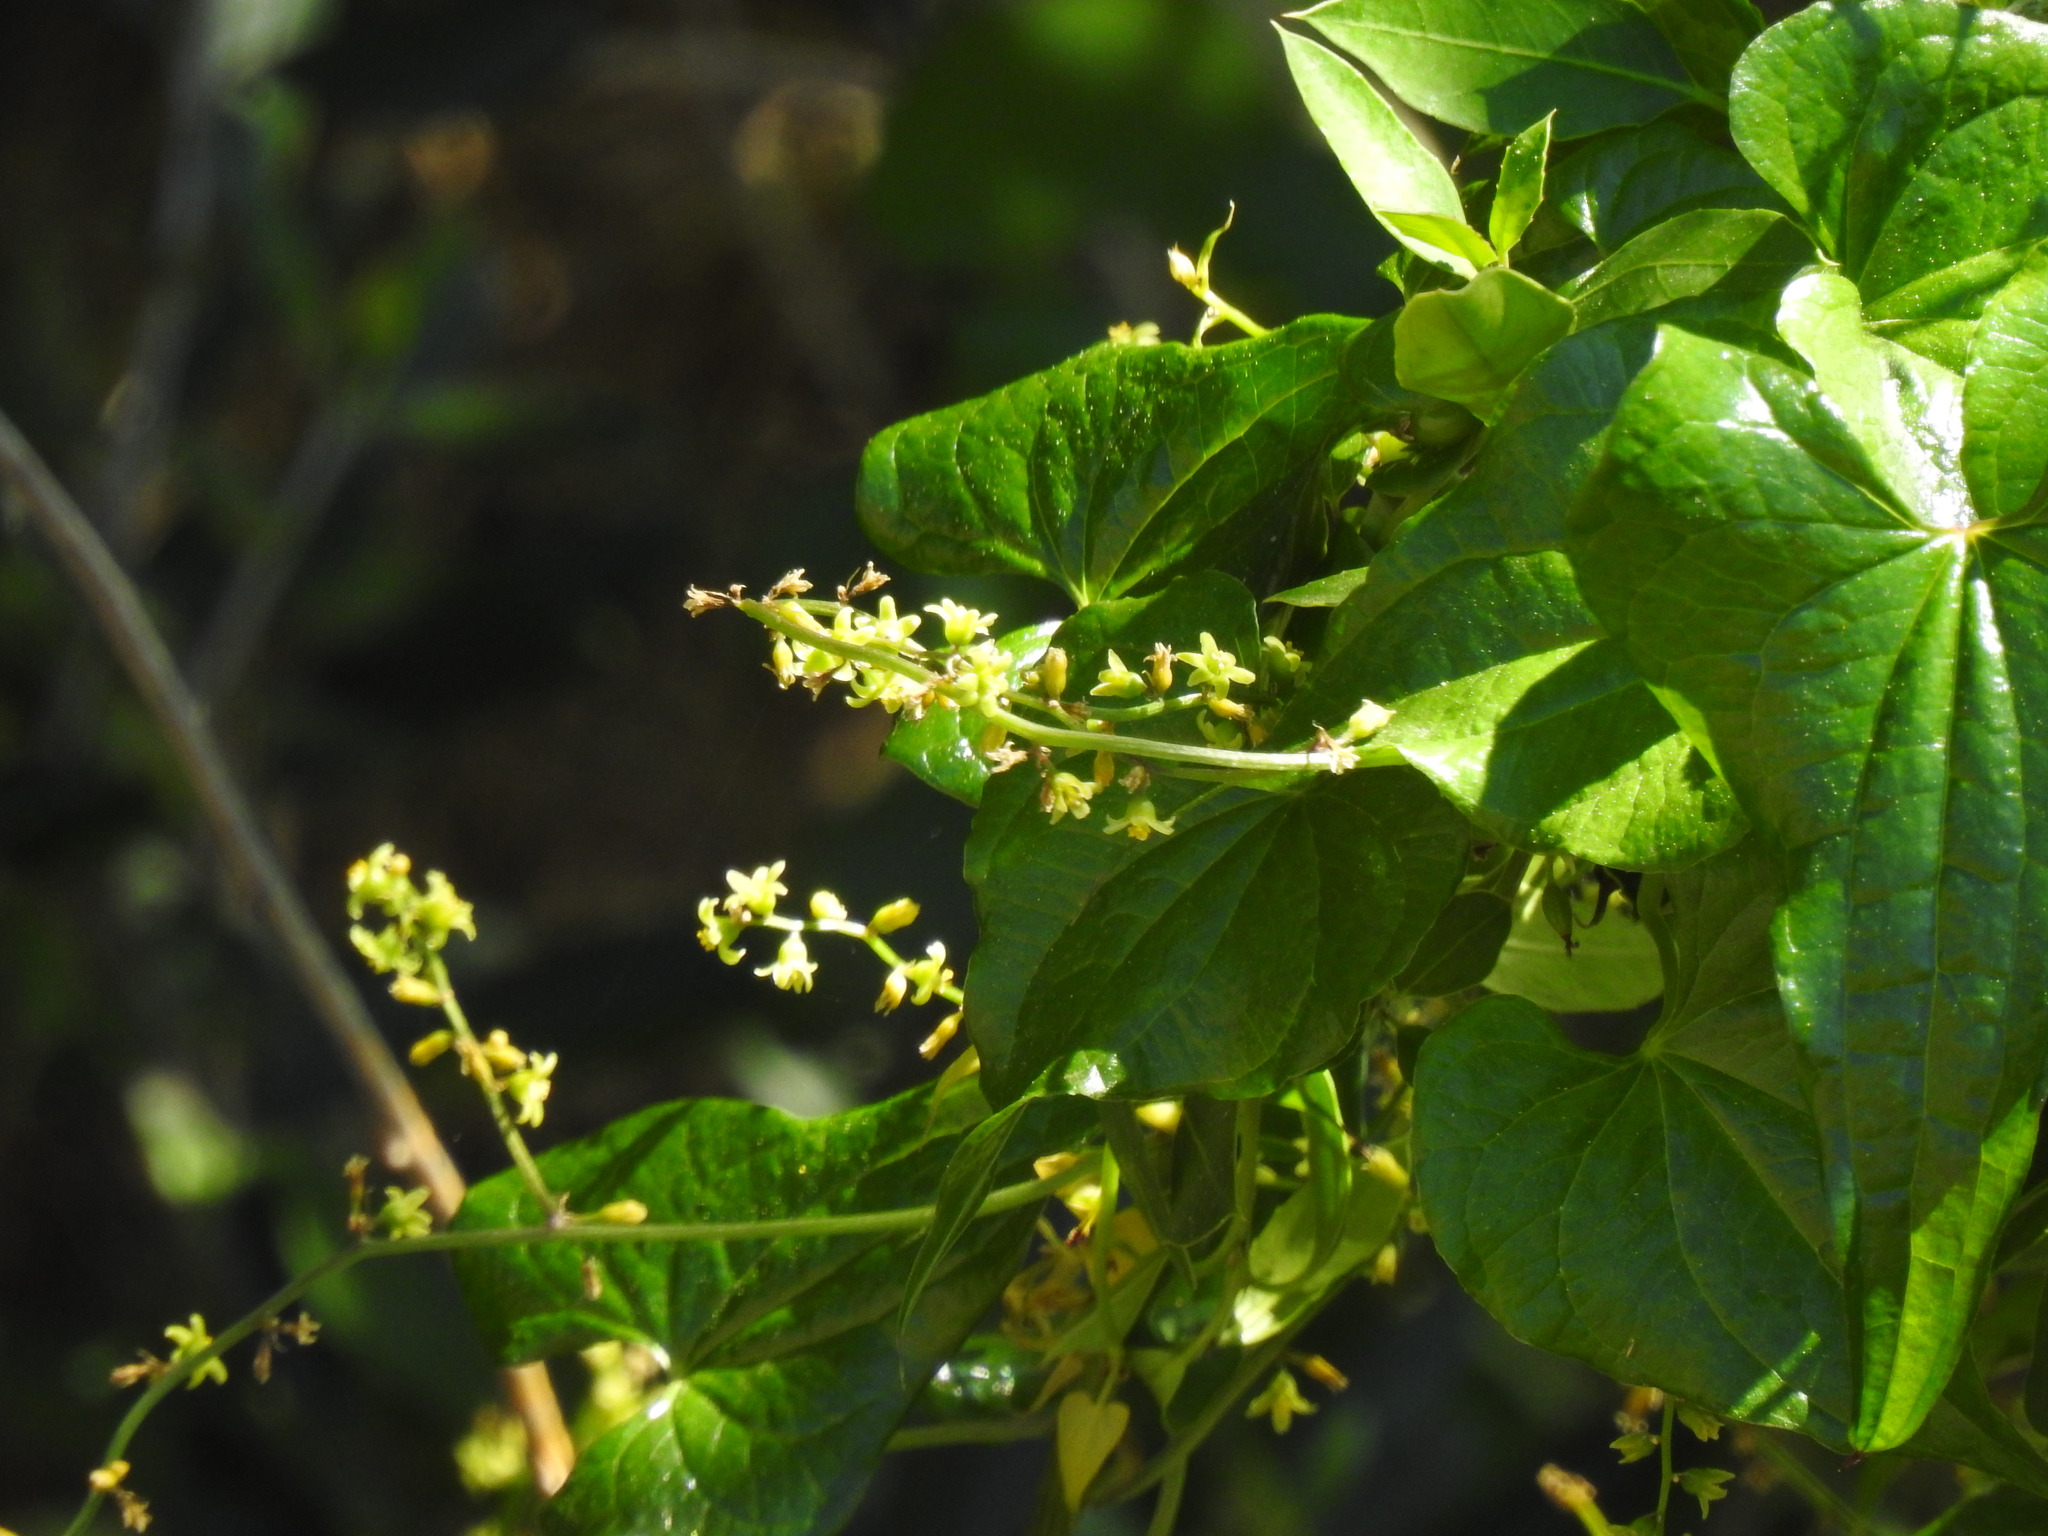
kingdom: Plantae
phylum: Tracheophyta
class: Liliopsida
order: Dioscoreales
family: Dioscoreaceae
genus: Dioscorea
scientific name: Dioscorea communis
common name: Black-bindweed
